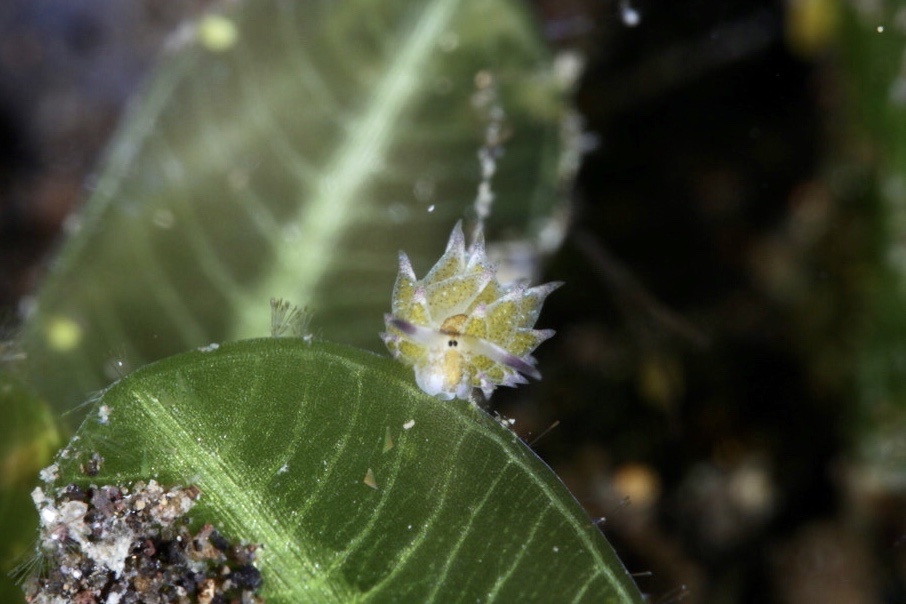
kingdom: Animalia
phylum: Mollusca
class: Gastropoda
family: Costasiellidae
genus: Costasiella
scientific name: Costasiella kuroshimae
